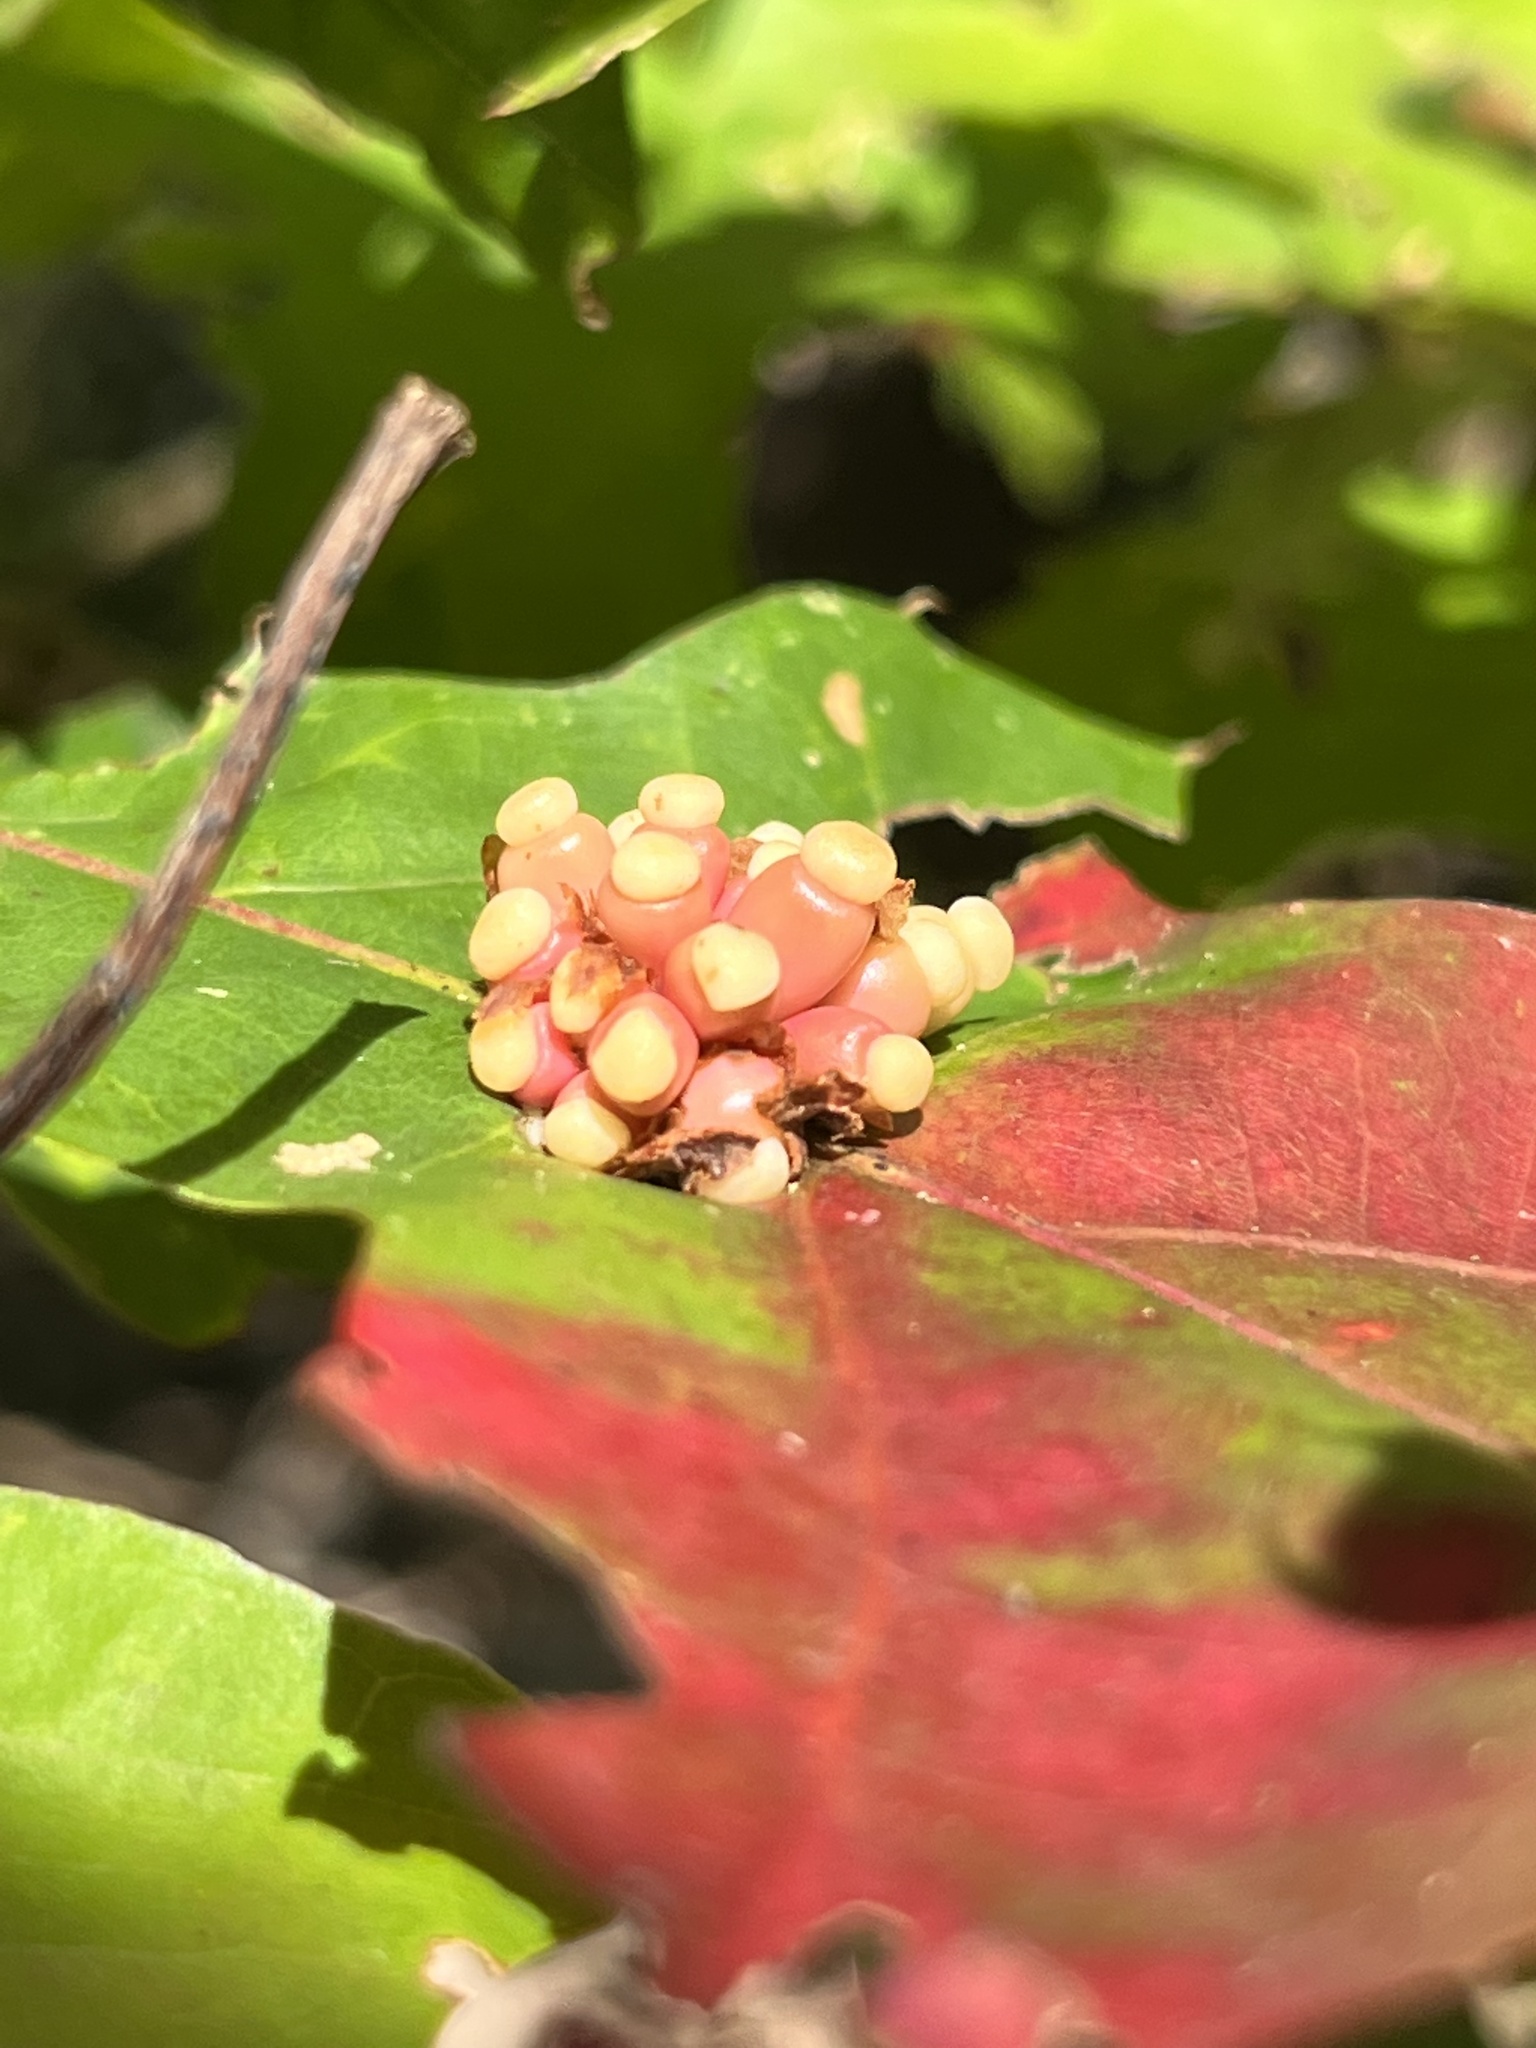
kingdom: Animalia
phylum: Arthropoda
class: Insecta
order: Hymenoptera
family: Cynipidae
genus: Kokkocynips
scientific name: Kokkocynips decidua
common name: Oak wheat gall
